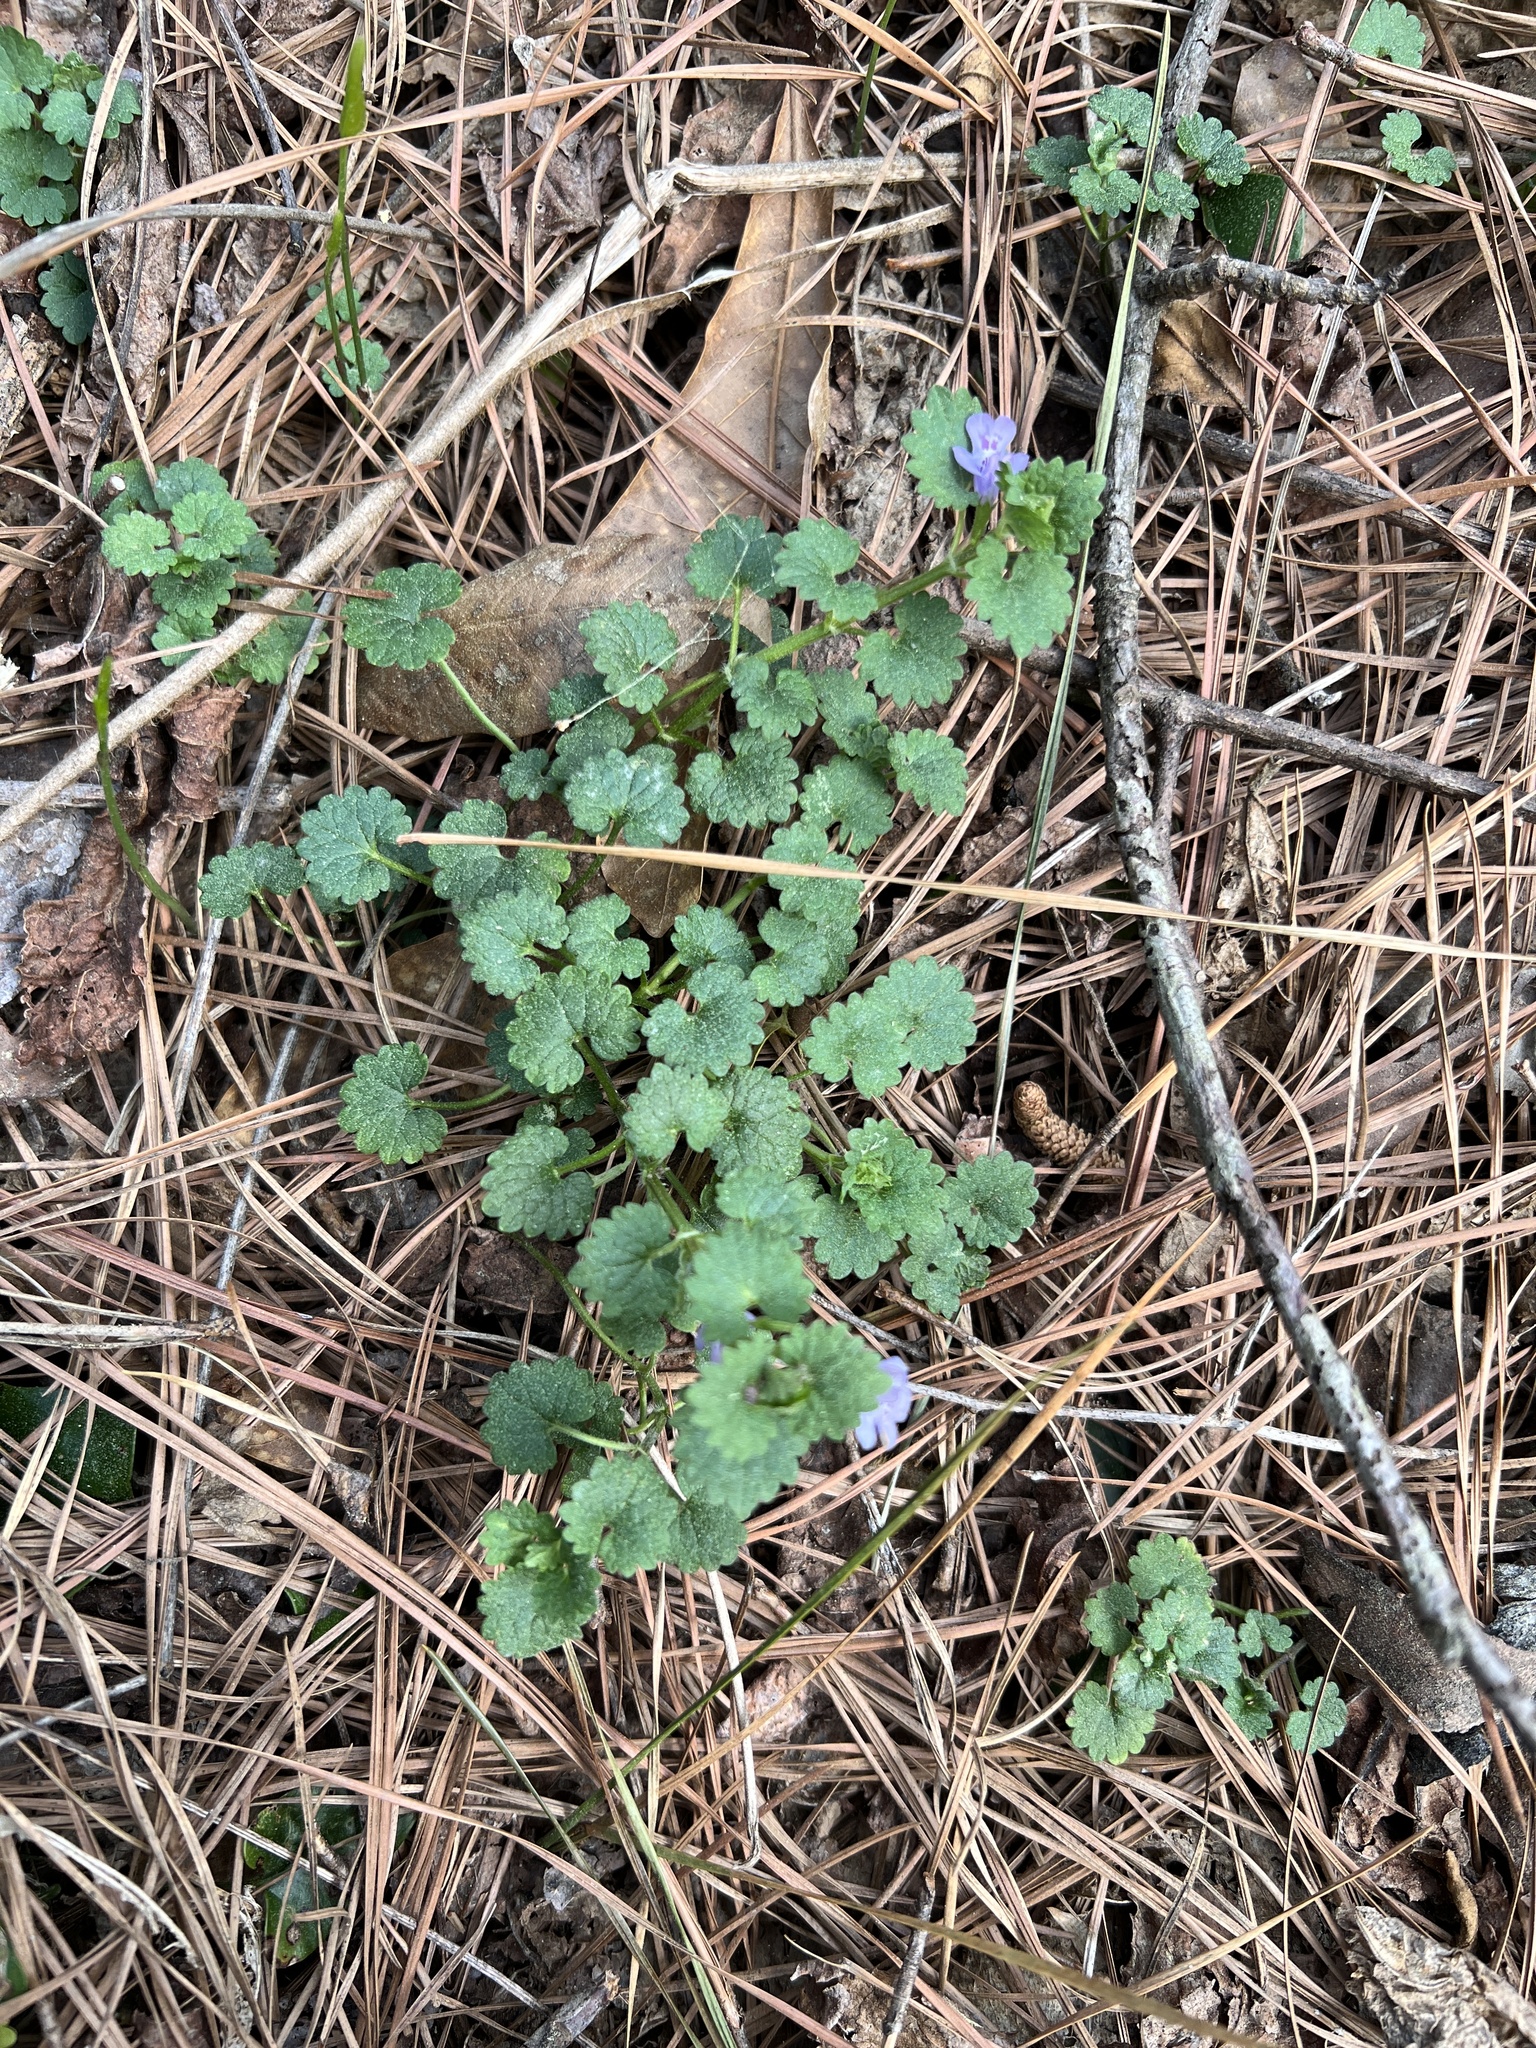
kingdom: Plantae
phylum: Tracheophyta
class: Magnoliopsida
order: Lamiales
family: Lamiaceae
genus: Glechoma
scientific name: Glechoma hederacea
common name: Ground ivy
